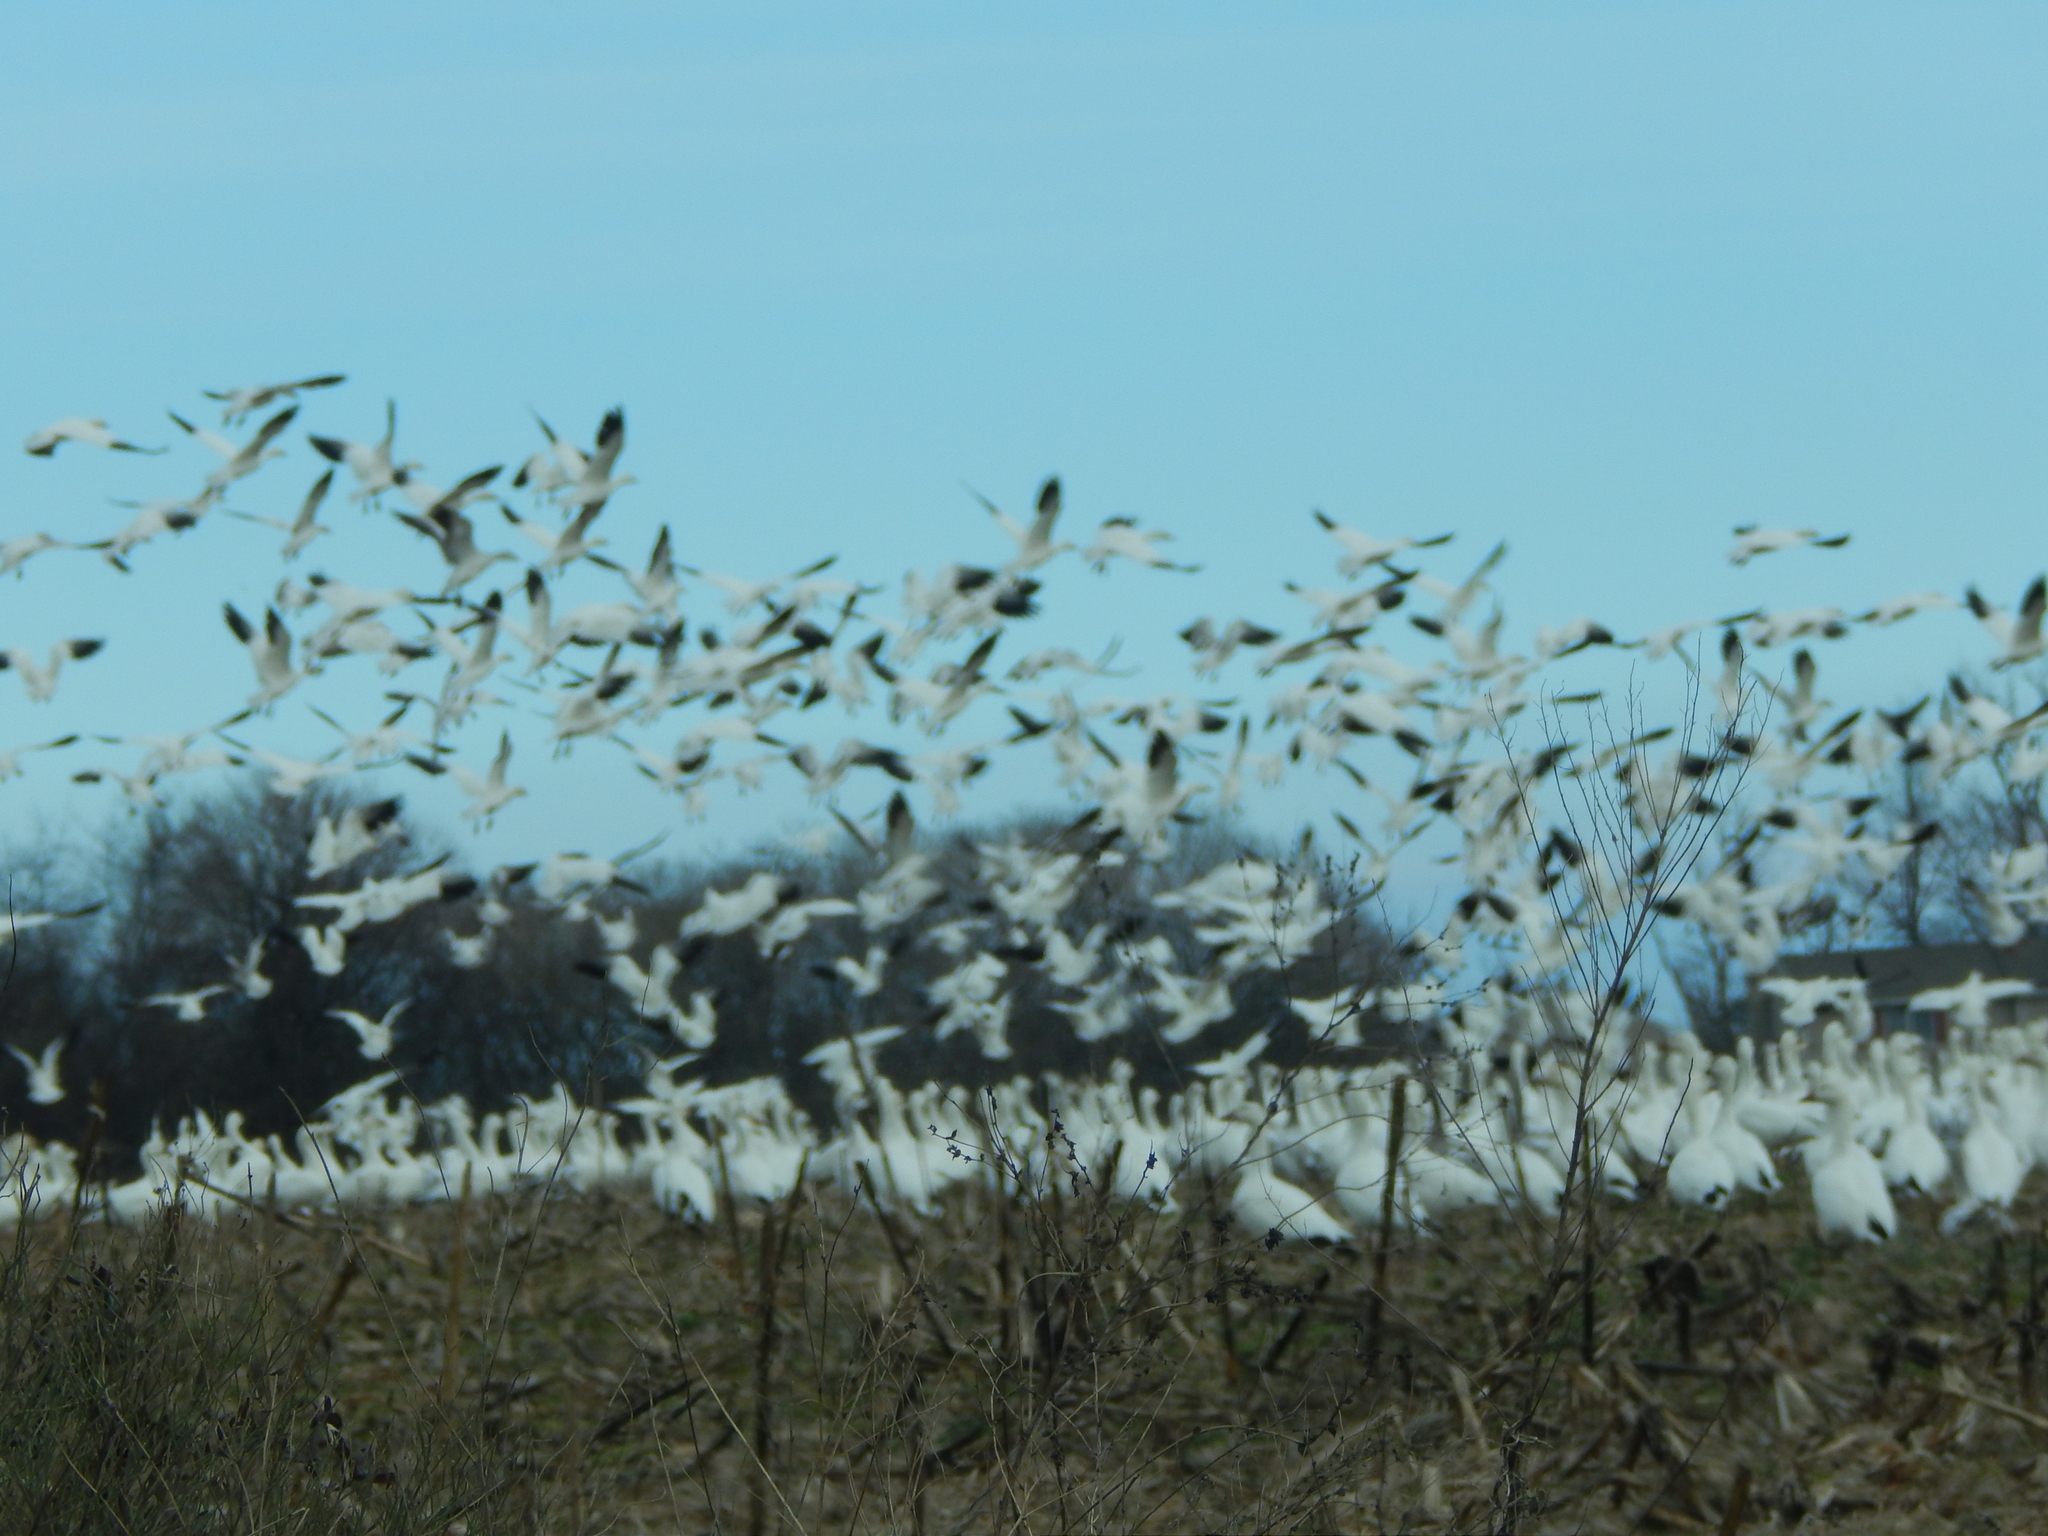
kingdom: Animalia
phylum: Chordata
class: Aves
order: Anseriformes
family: Anatidae
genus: Anser
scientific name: Anser caerulescens
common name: Snow goose
